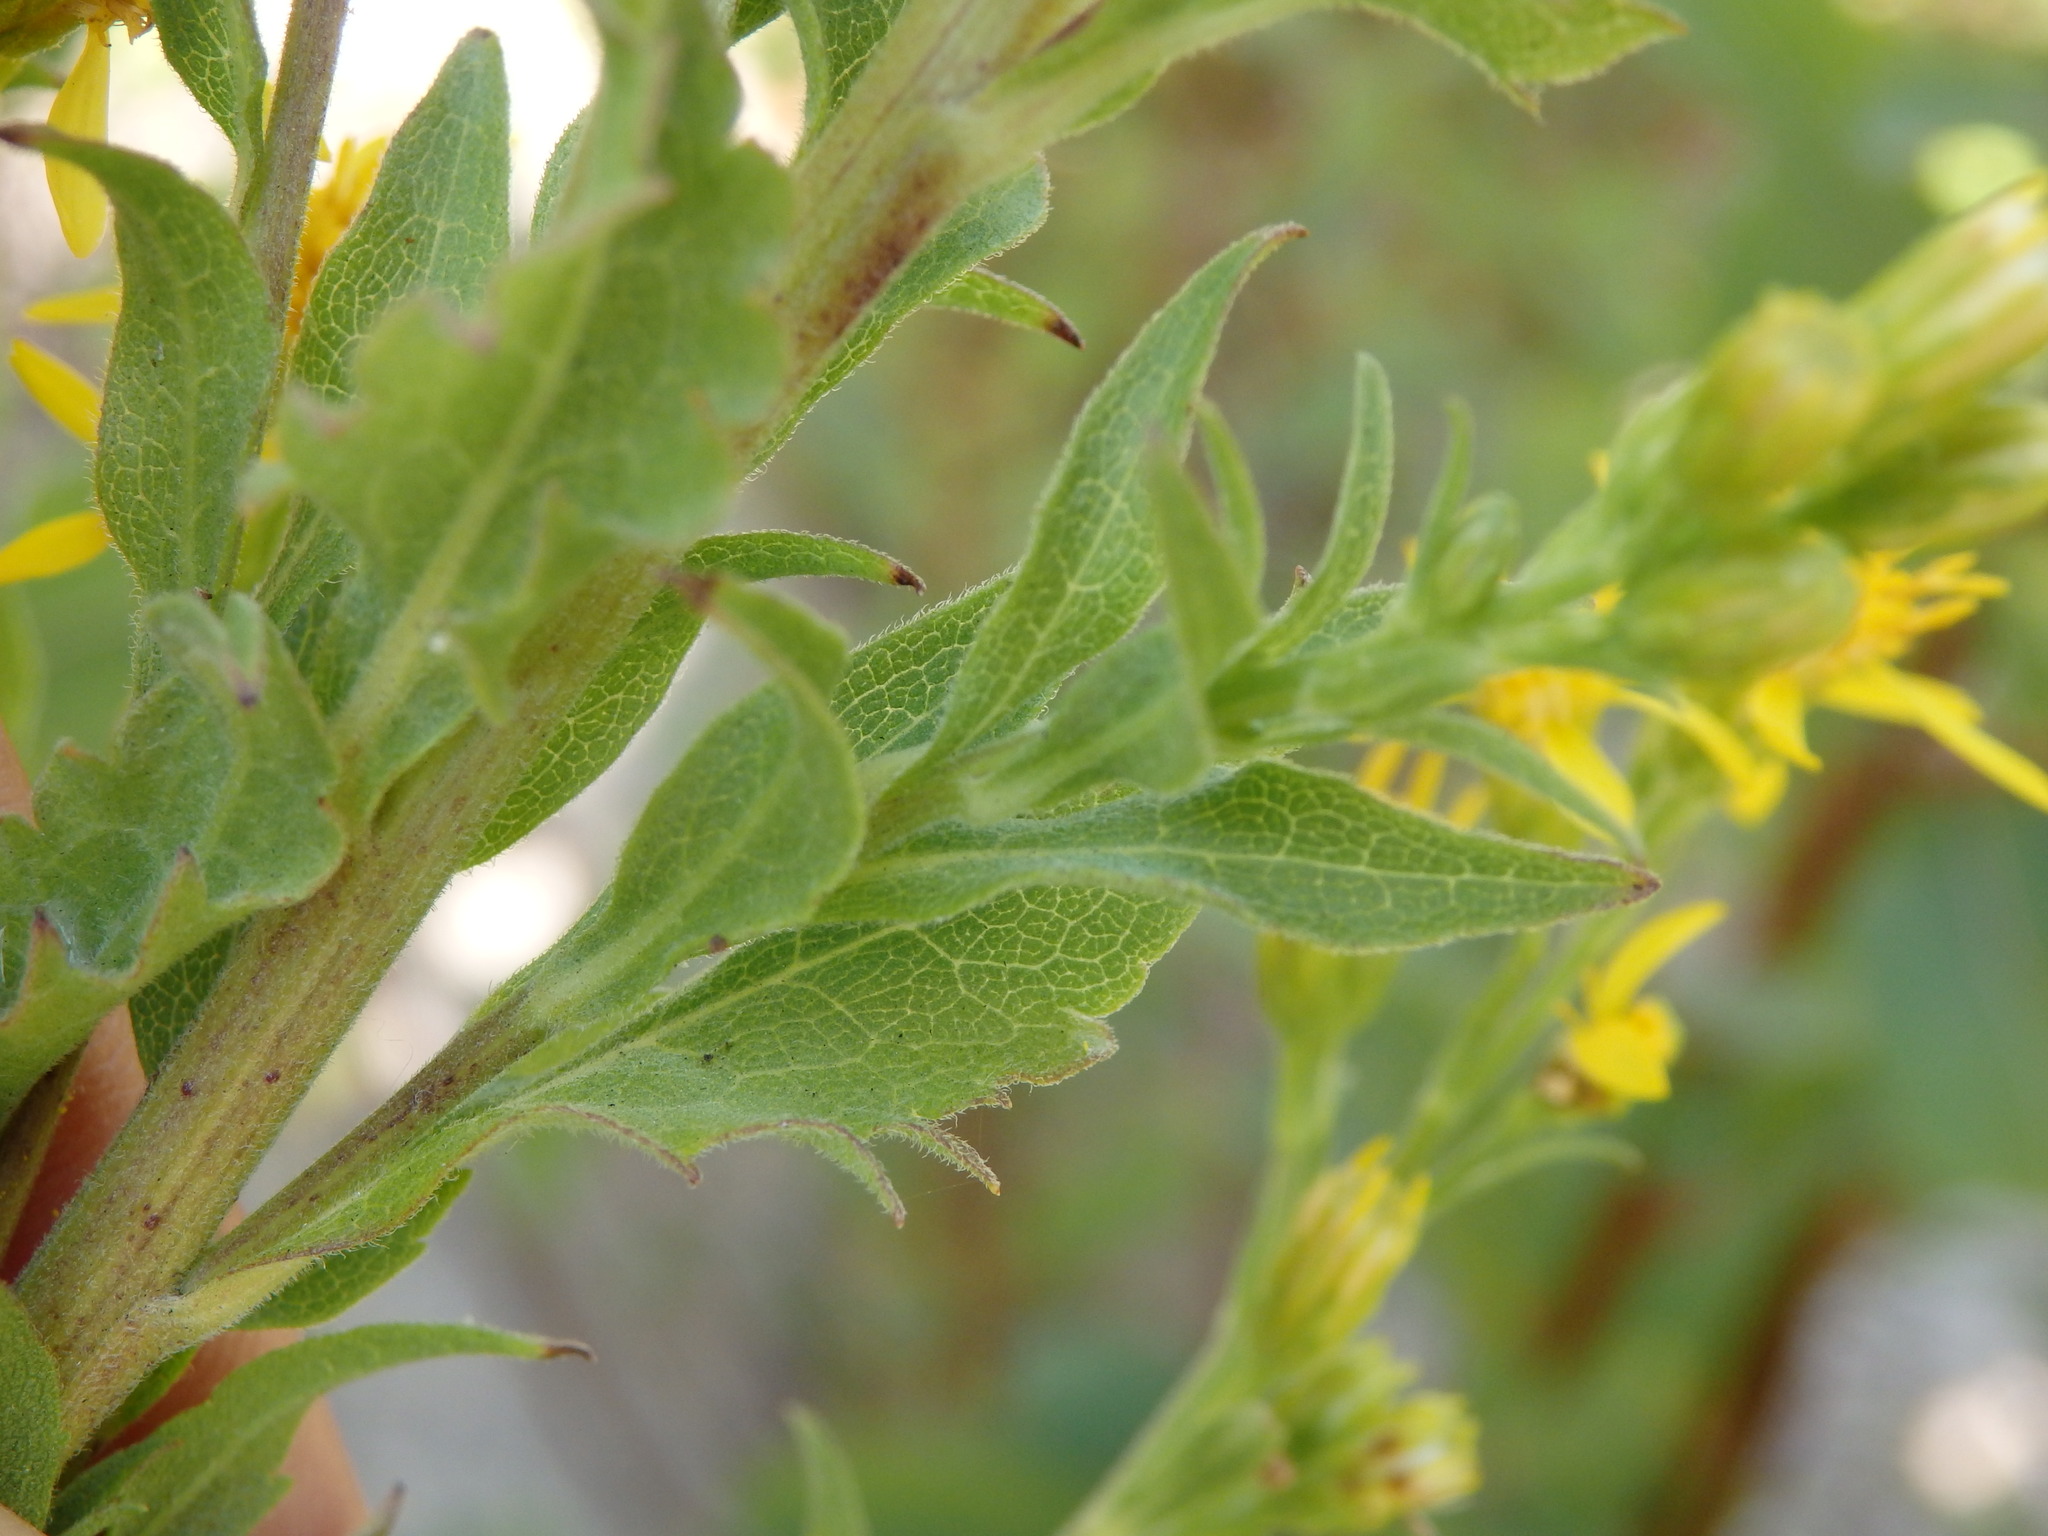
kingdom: Plantae
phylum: Tracheophyta
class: Magnoliopsida
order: Asterales
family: Asteraceae
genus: Solidago
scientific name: Solidago virgaurea
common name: Goldenrod
